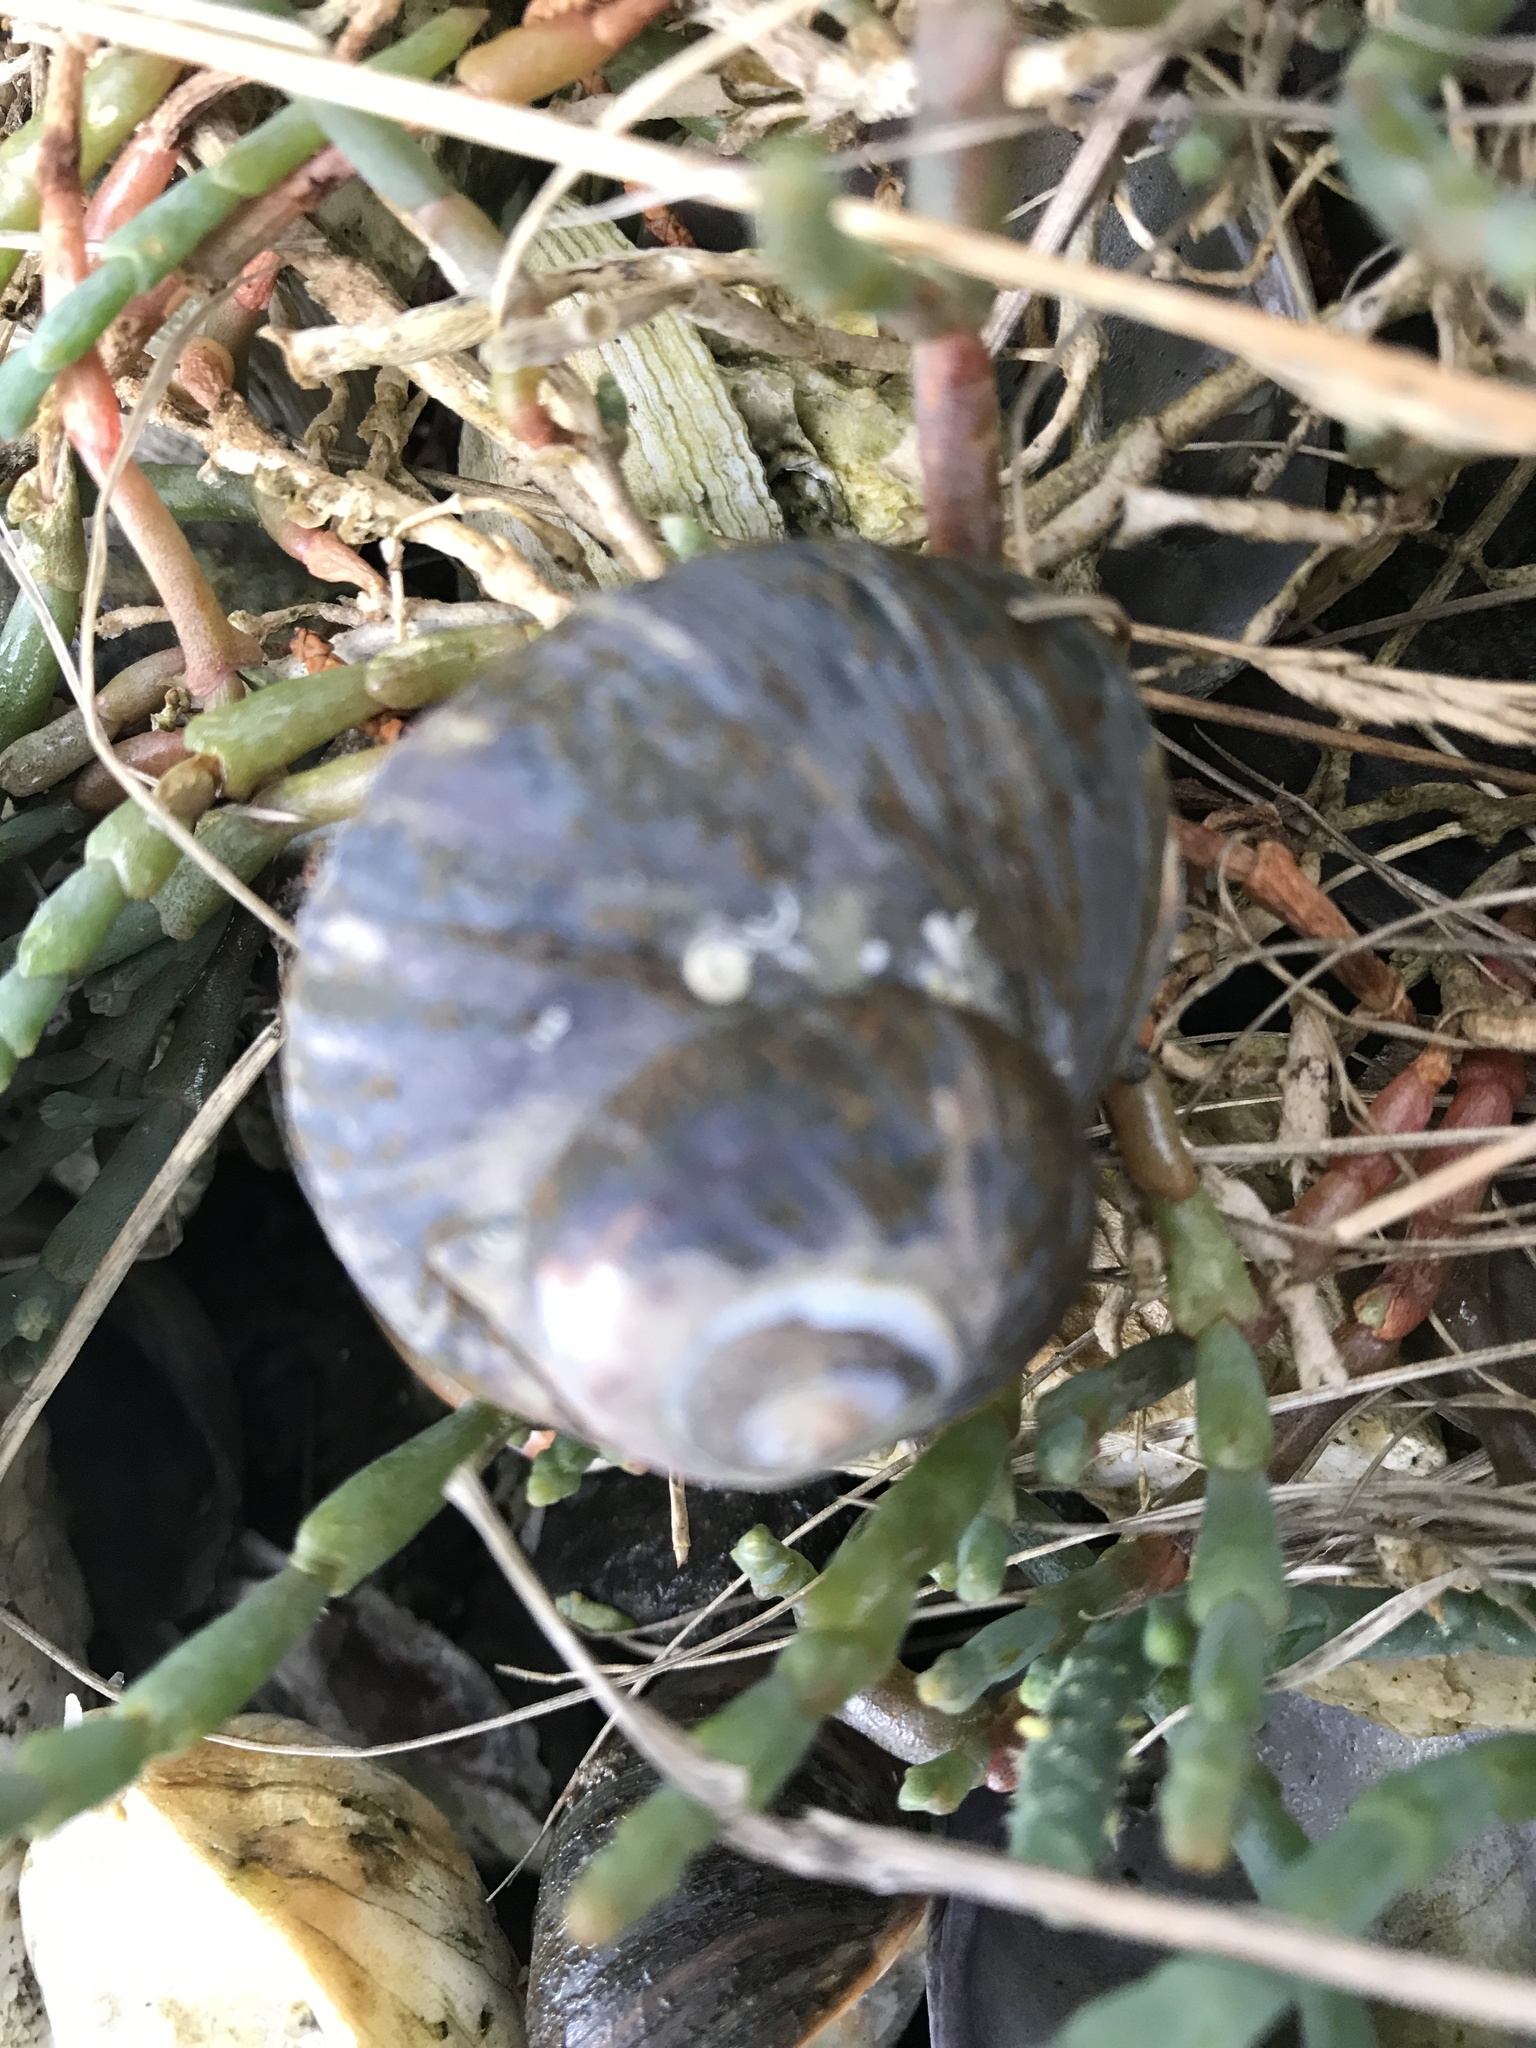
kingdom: Animalia
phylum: Mollusca
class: Gastropoda
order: Trochida
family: Turbinidae
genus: Lunella
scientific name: Lunella smaragda
